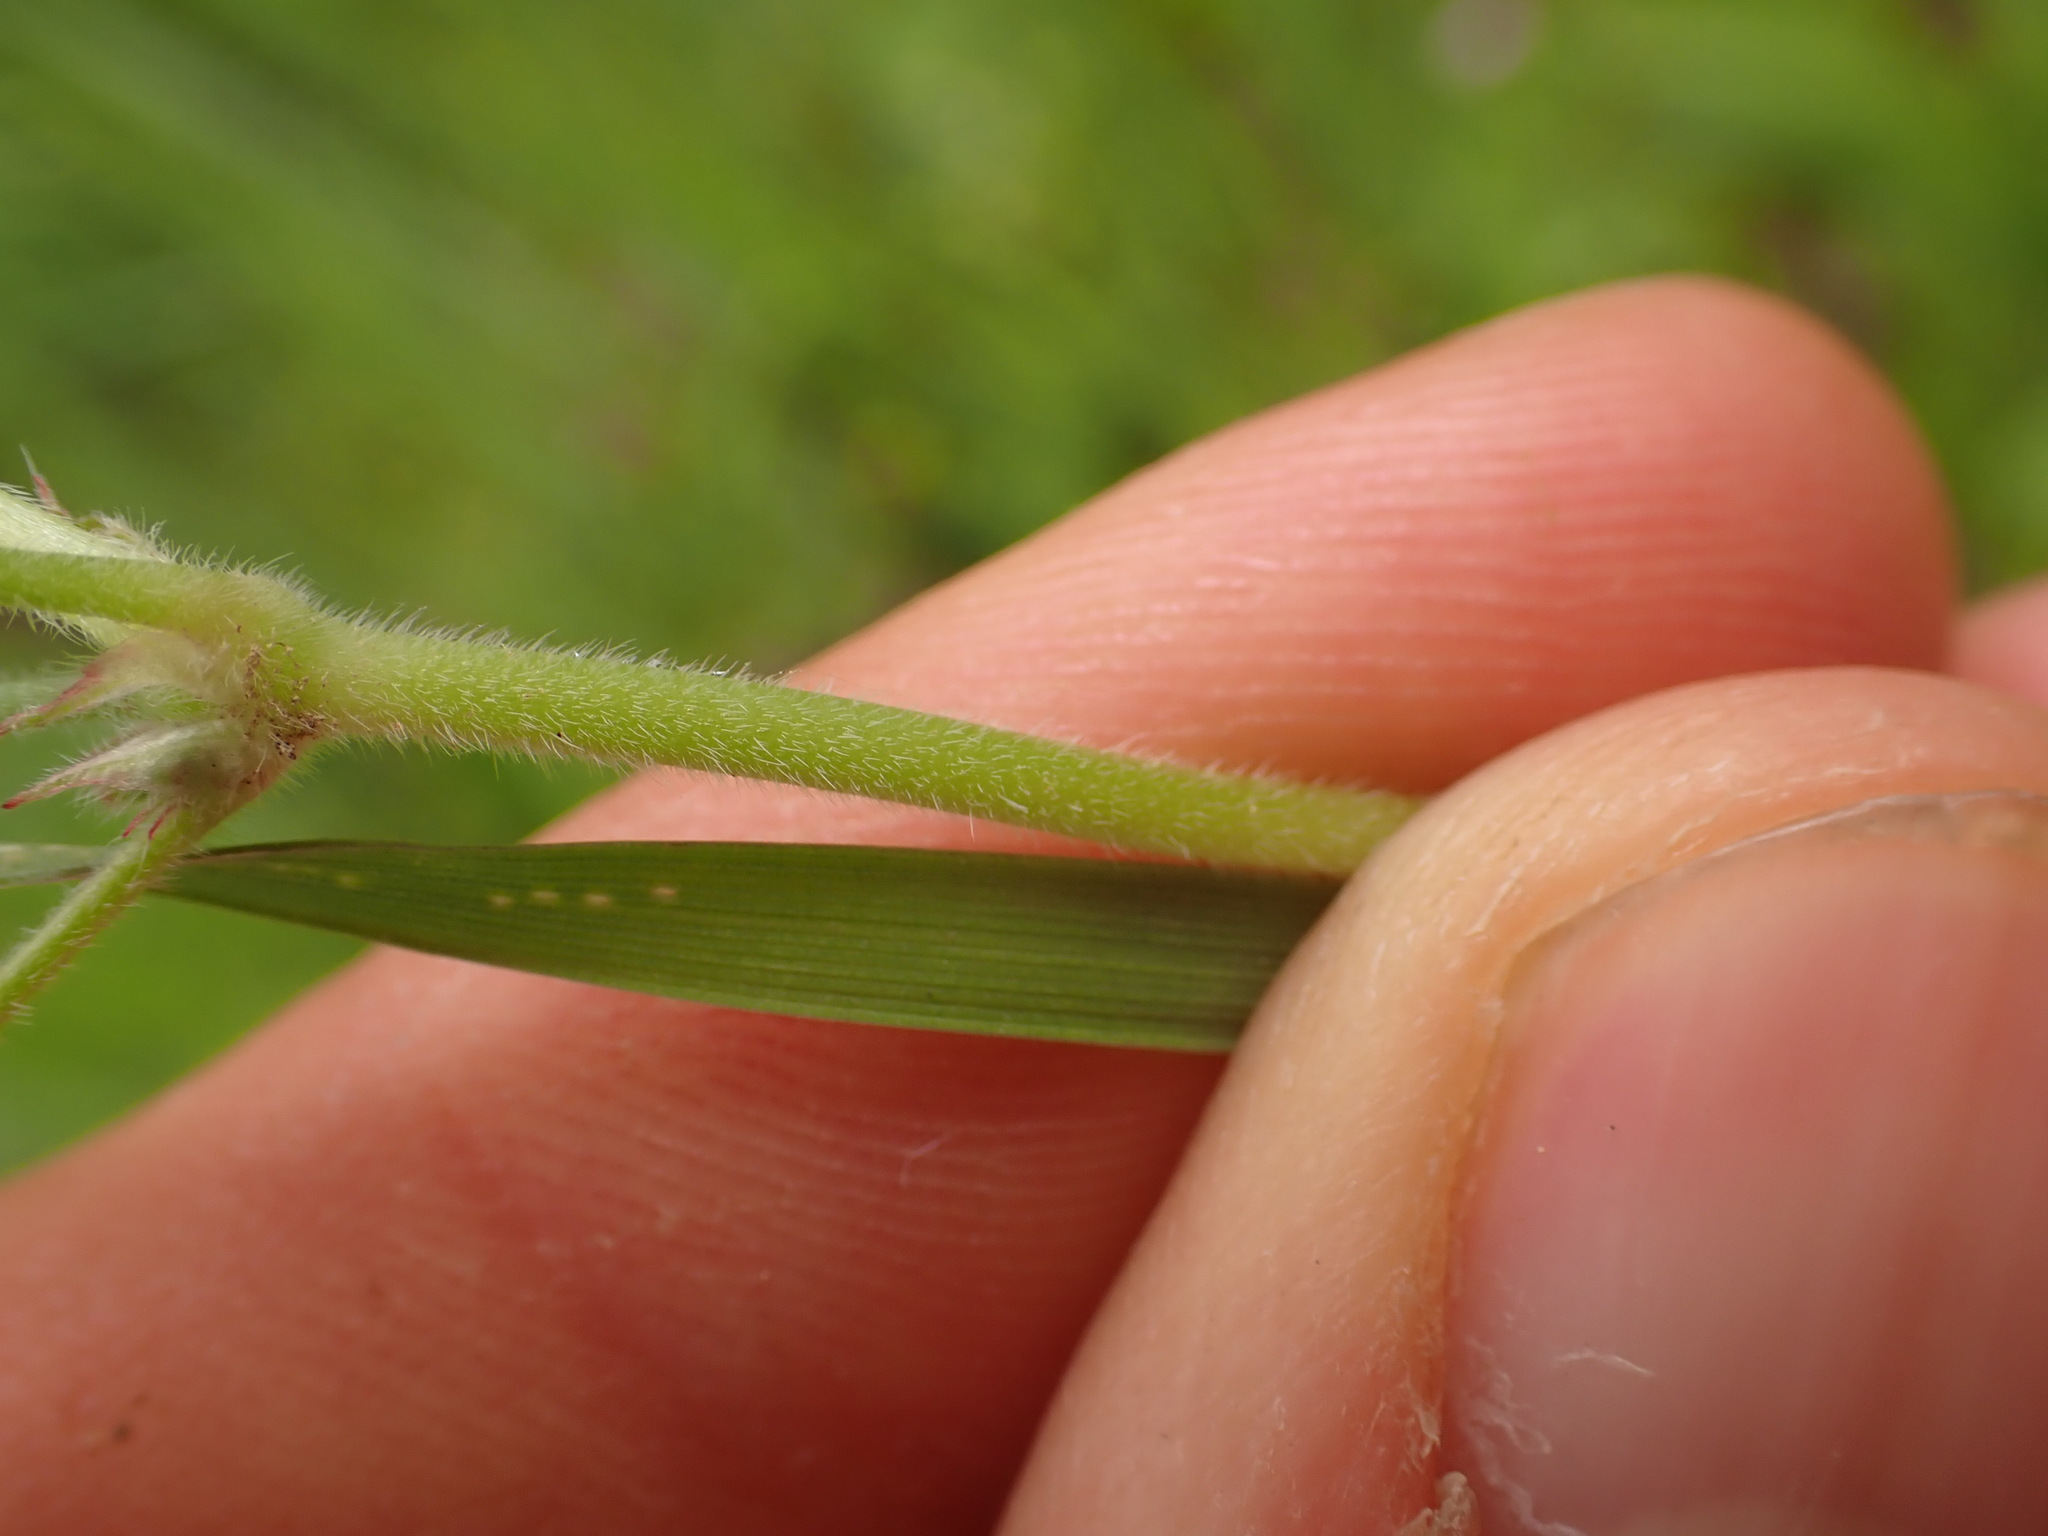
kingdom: Plantae
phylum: Tracheophyta
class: Magnoliopsida
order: Geraniales
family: Geraniaceae
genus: Geranium
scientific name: Geranium dissectum
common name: Cut-leaved crane's-bill
